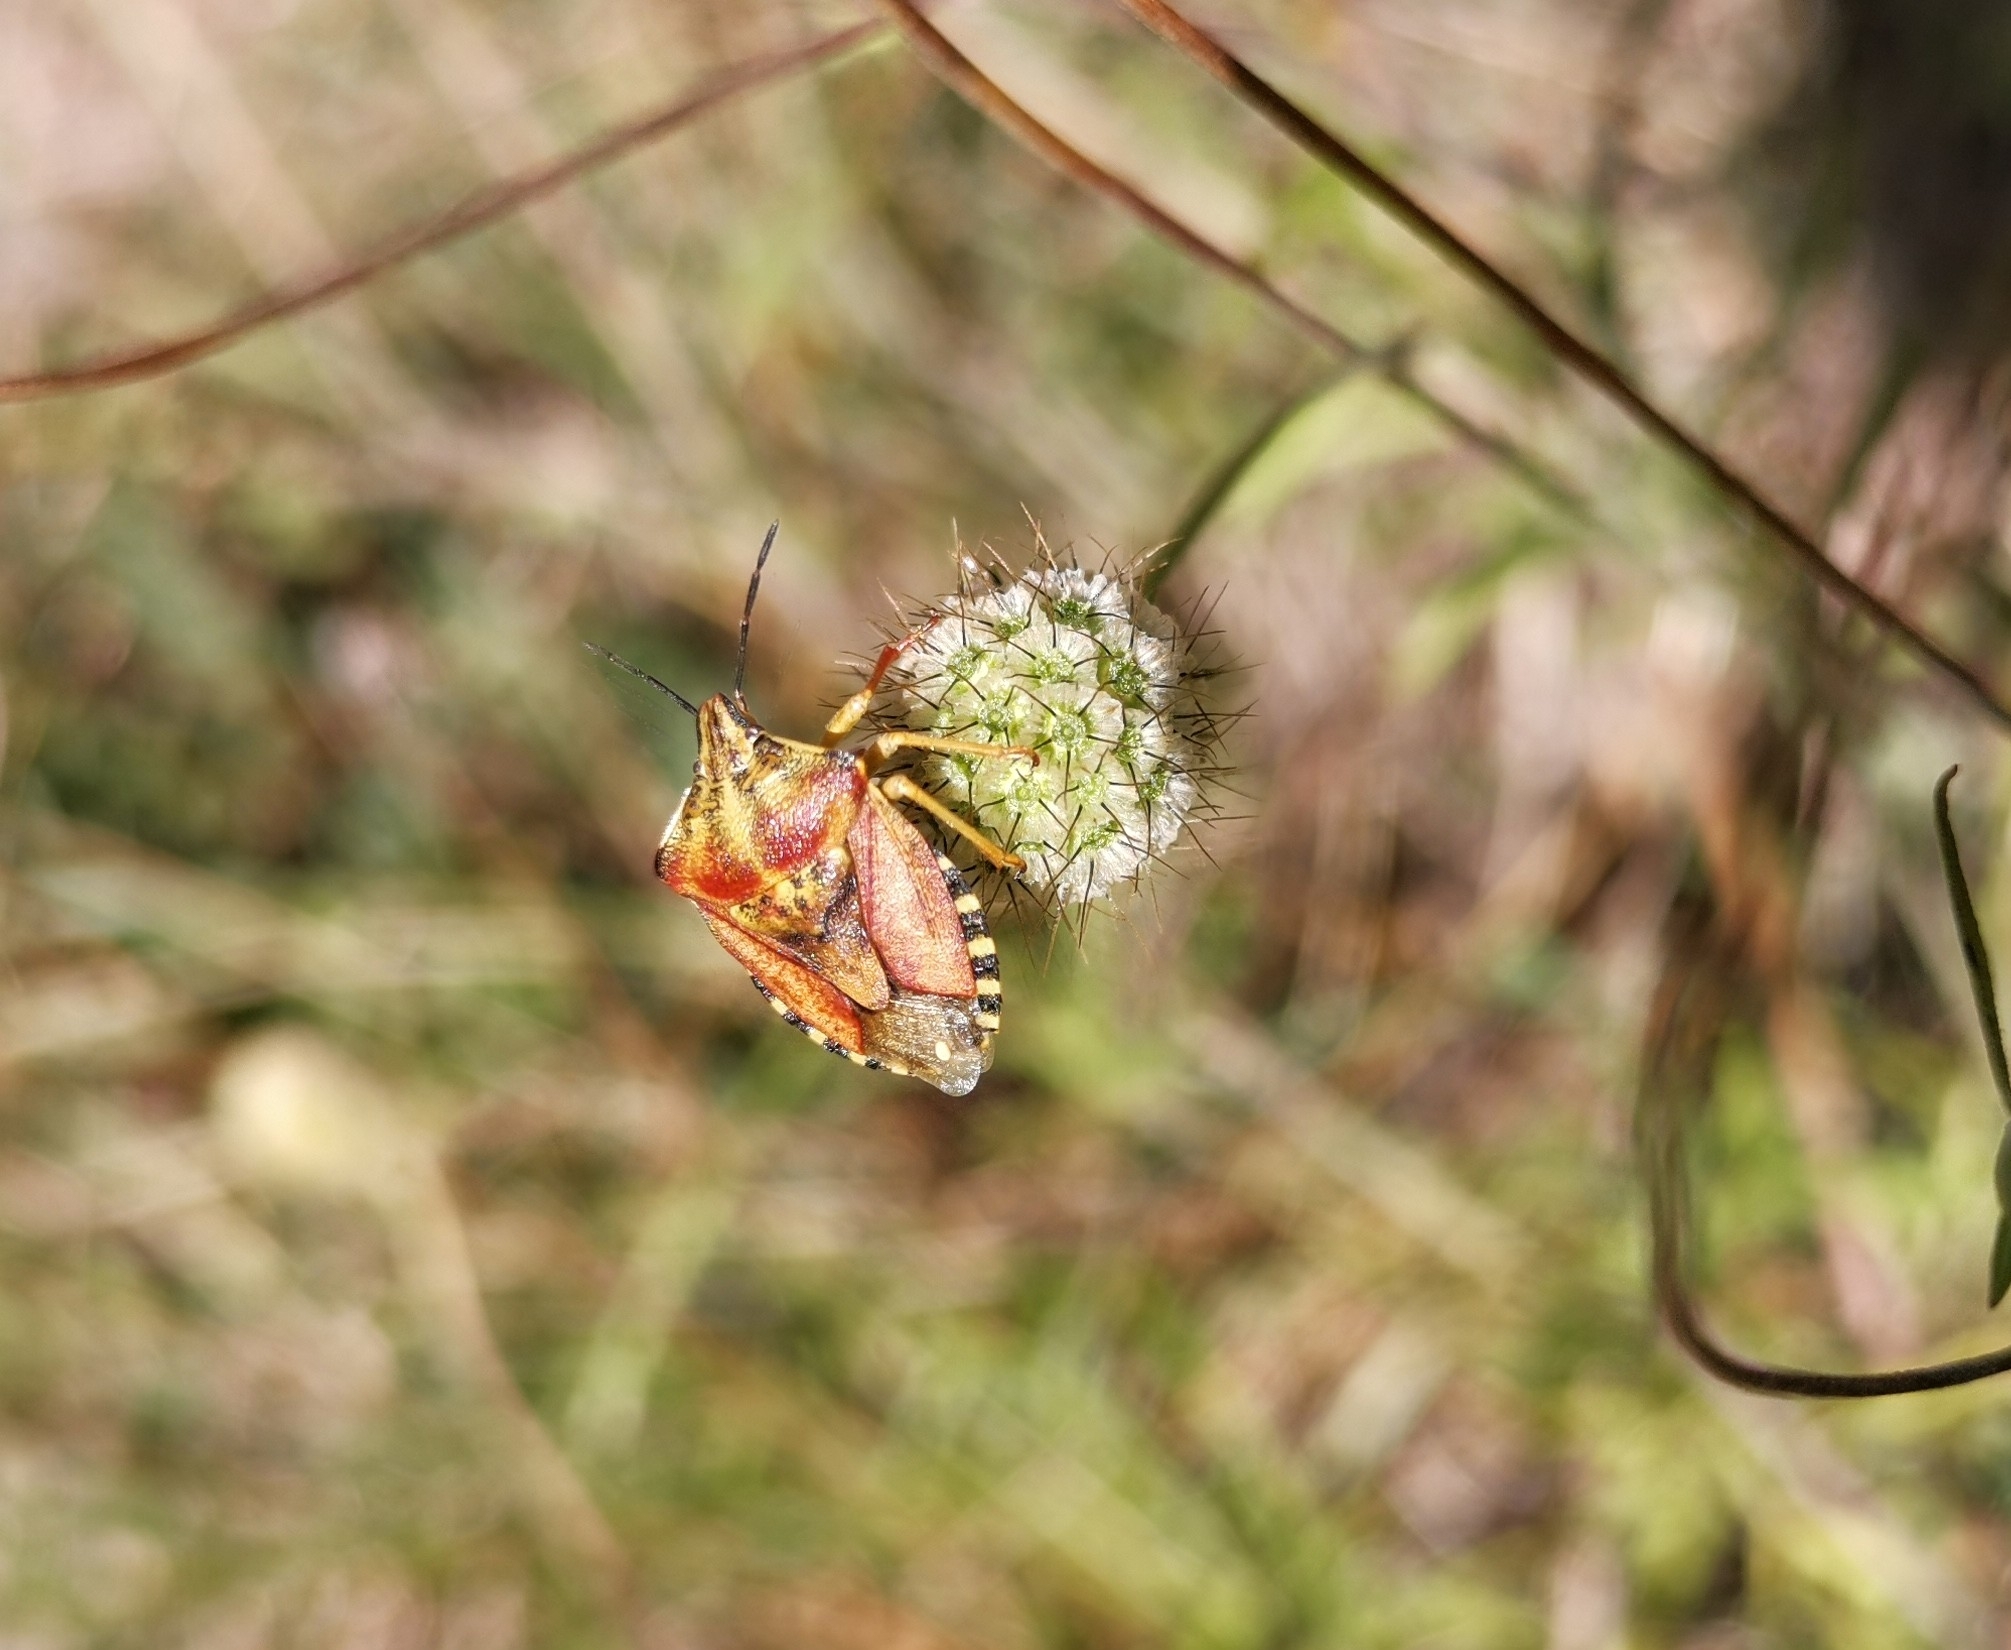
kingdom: Animalia
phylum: Arthropoda
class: Insecta
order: Hemiptera
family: Pentatomidae
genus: Carpocoris
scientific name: Carpocoris purpureipennis
